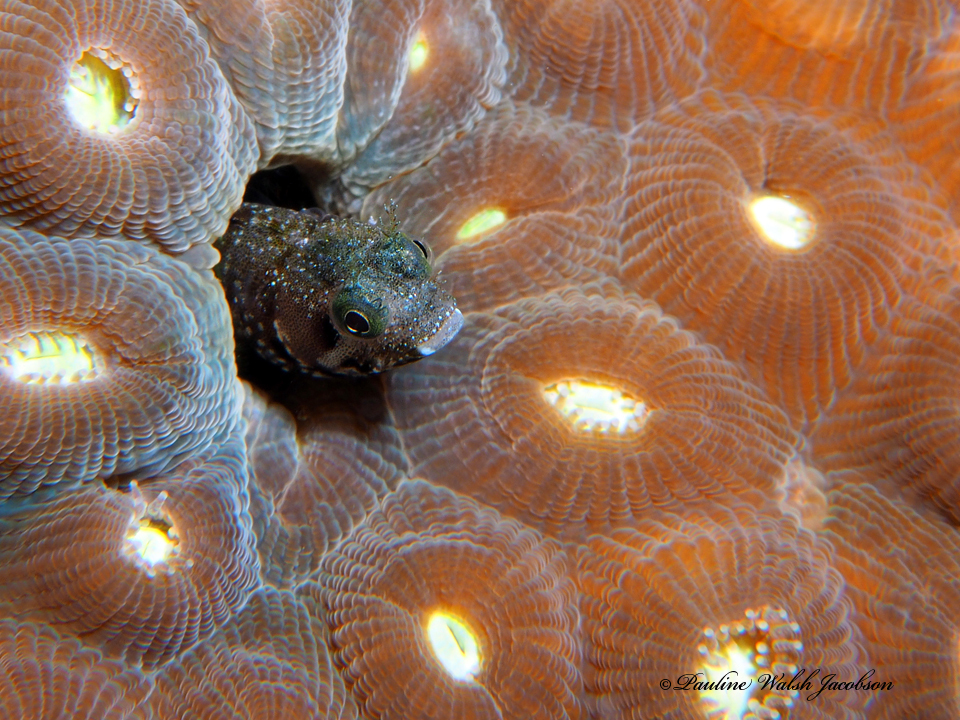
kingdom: Animalia
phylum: Chordata
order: Perciformes
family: Chaenopsidae
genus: Acanthemblemaria
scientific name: Acanthemblemaria spinosa
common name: Spinyhead blenny
